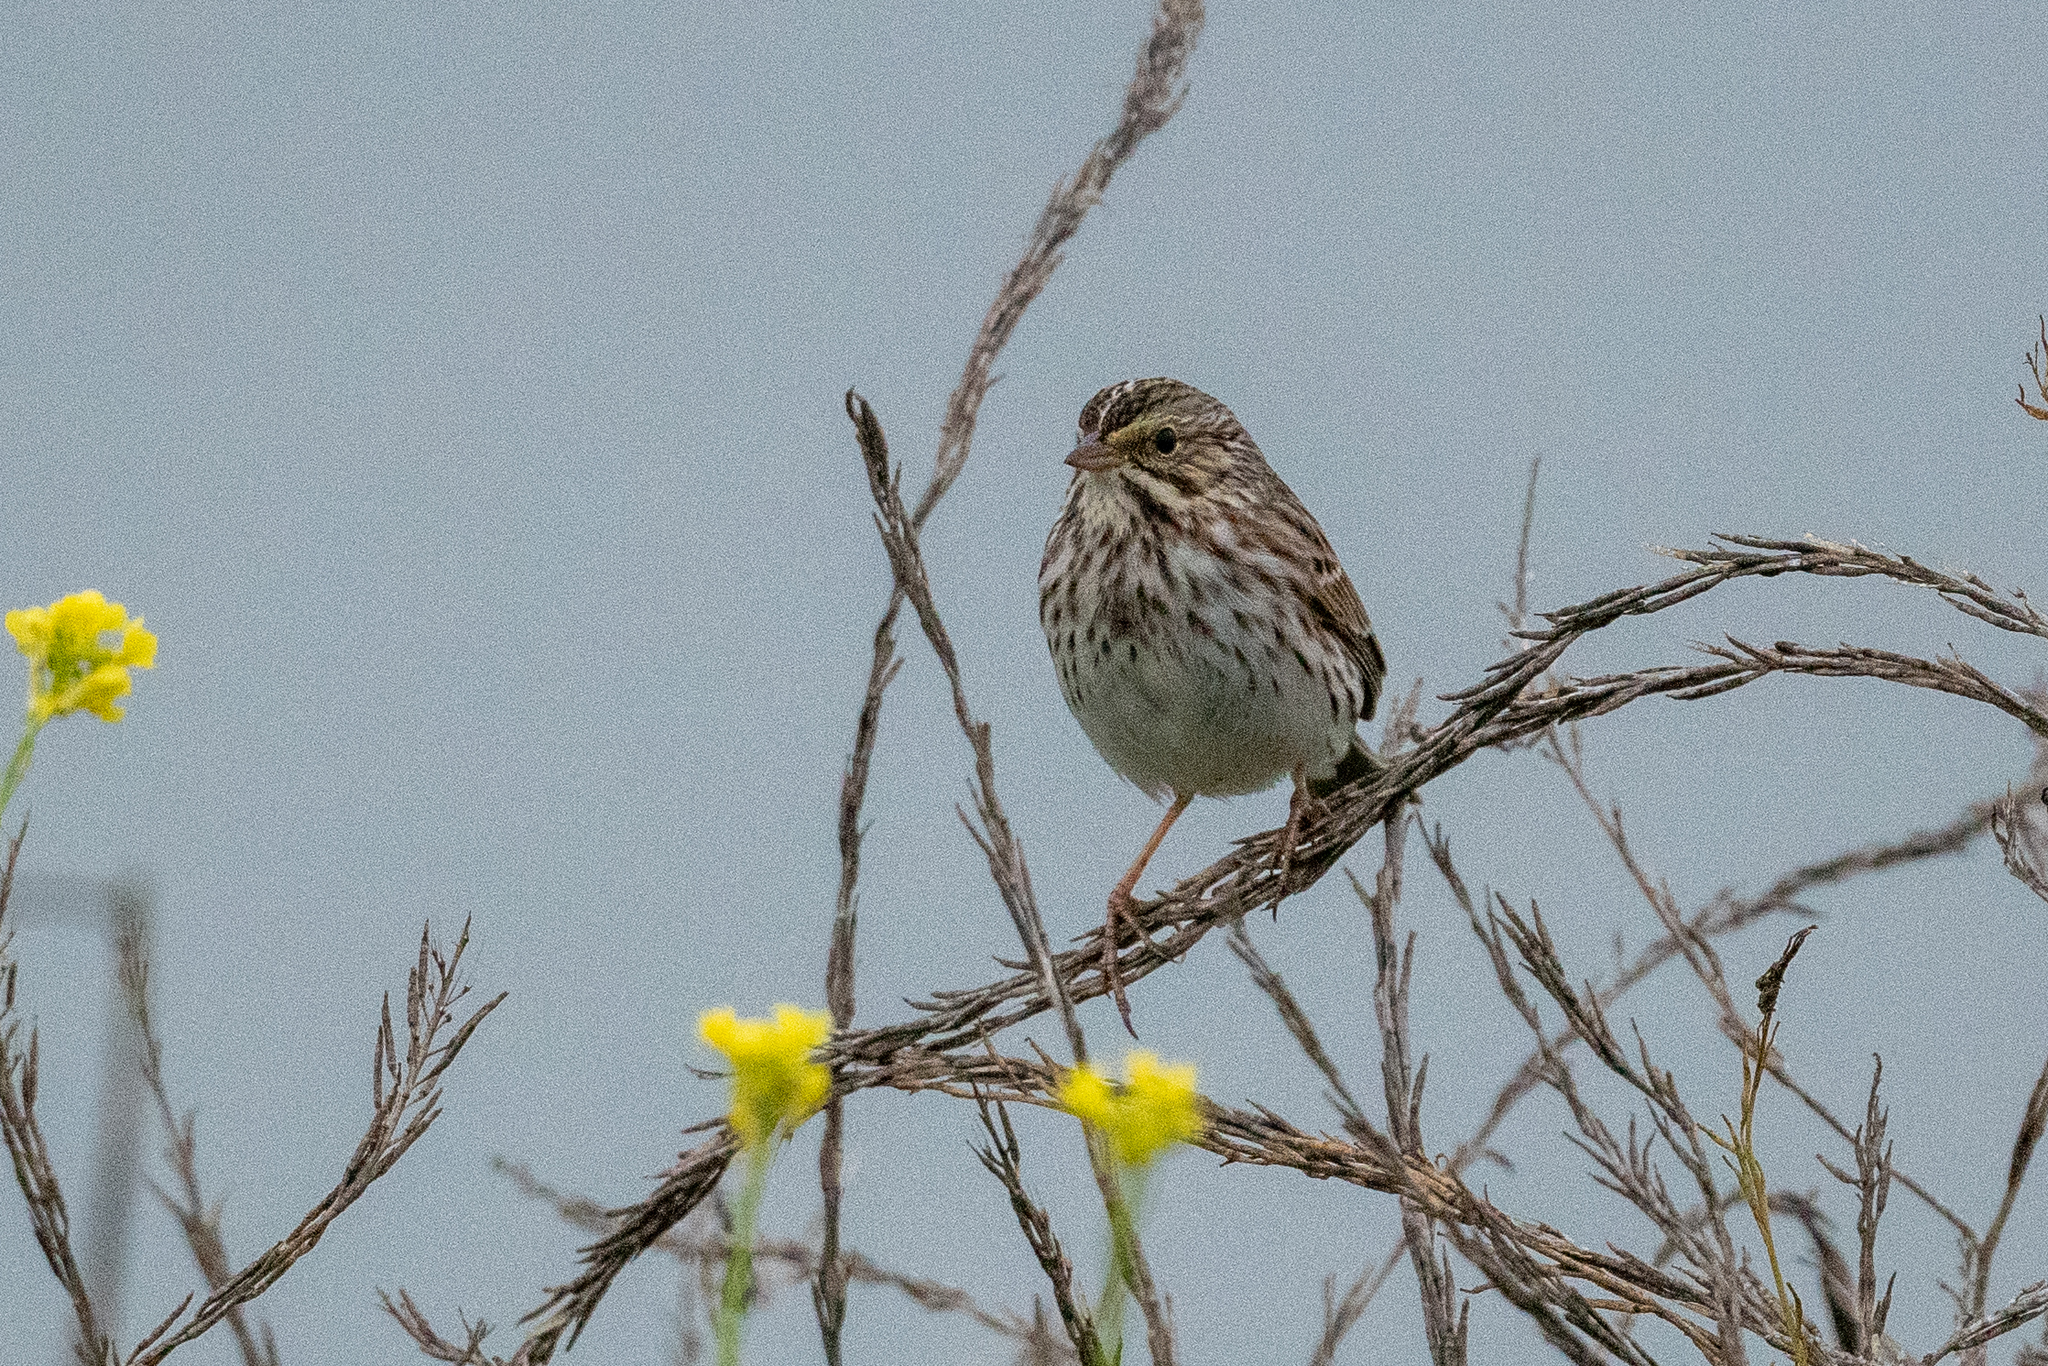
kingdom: Animalia
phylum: Chordata
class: Aves
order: Passeriformes
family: Passerellidae
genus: Passerculus
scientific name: Passerculus sandwichensis
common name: Savannah sparrow
